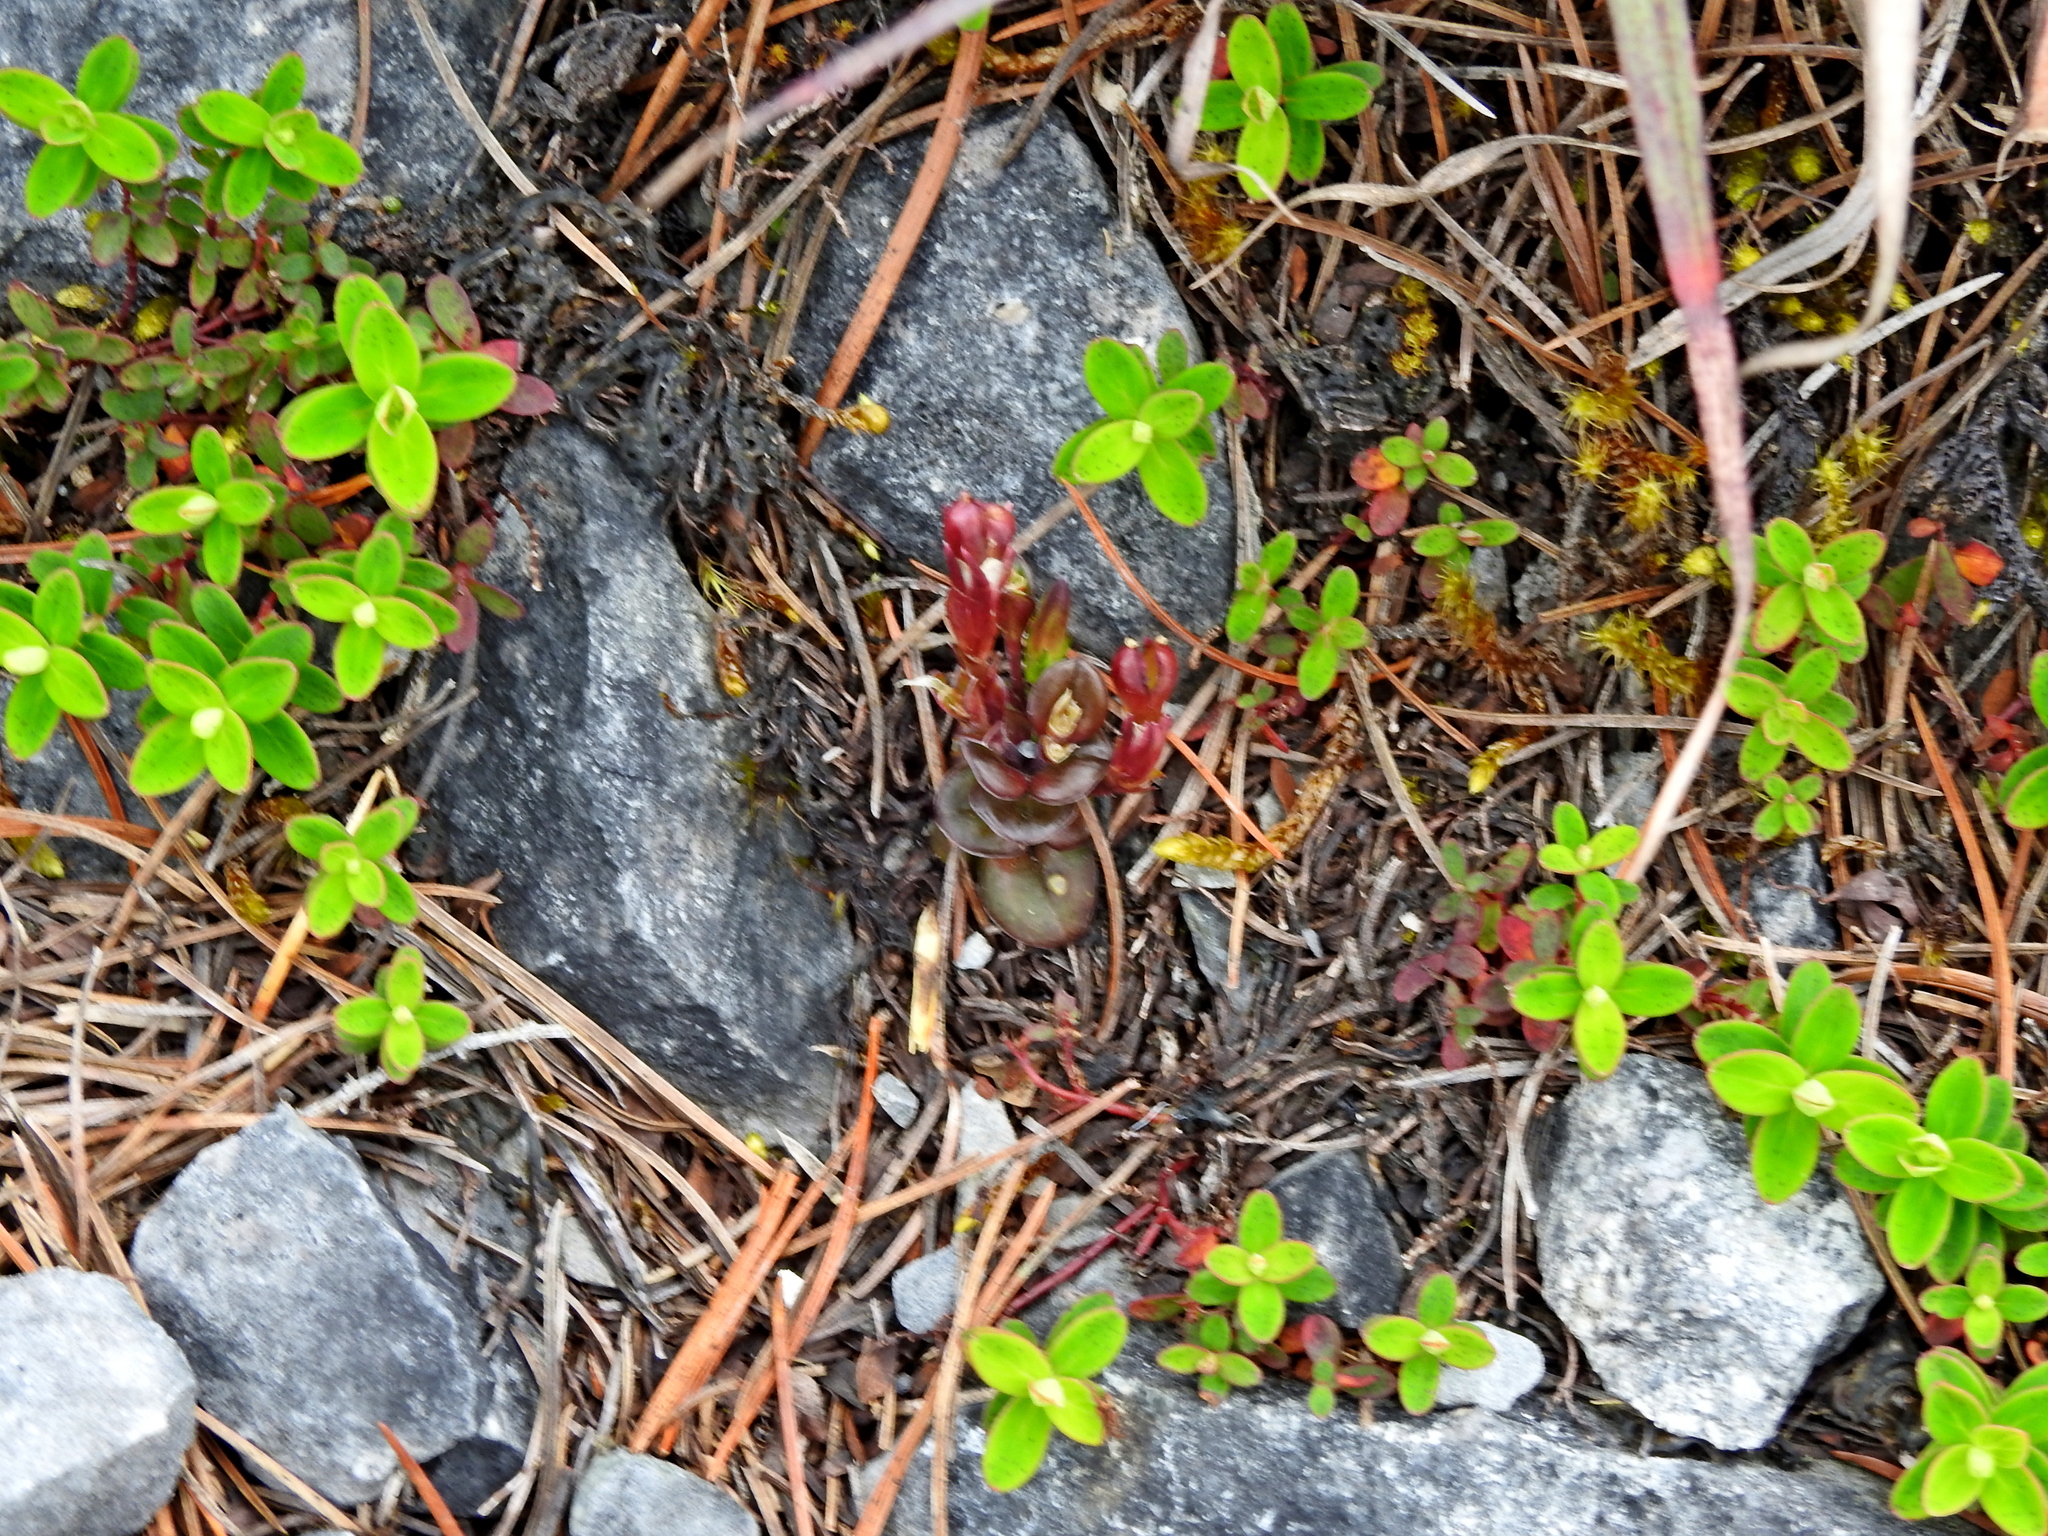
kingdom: Plantae
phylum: Tracheophyta
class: Magnoliopsida
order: Gentianales
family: Gentianaceae
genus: Gentiana
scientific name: Gentiana zollingeri
